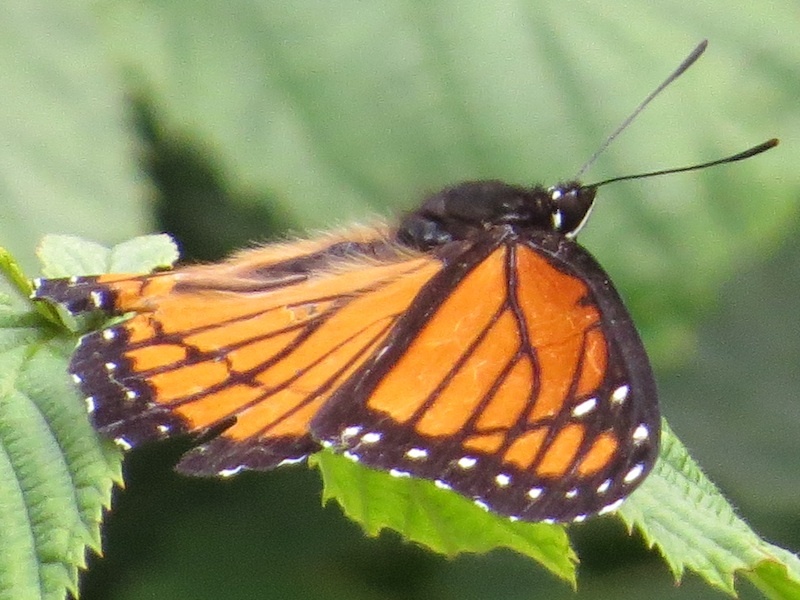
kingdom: Animalia
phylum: Arthropoda
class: Insecta
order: Lepidoptera
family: Nymphalidae
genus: Limenitis
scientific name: Limenitis archippus
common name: Viceroy
